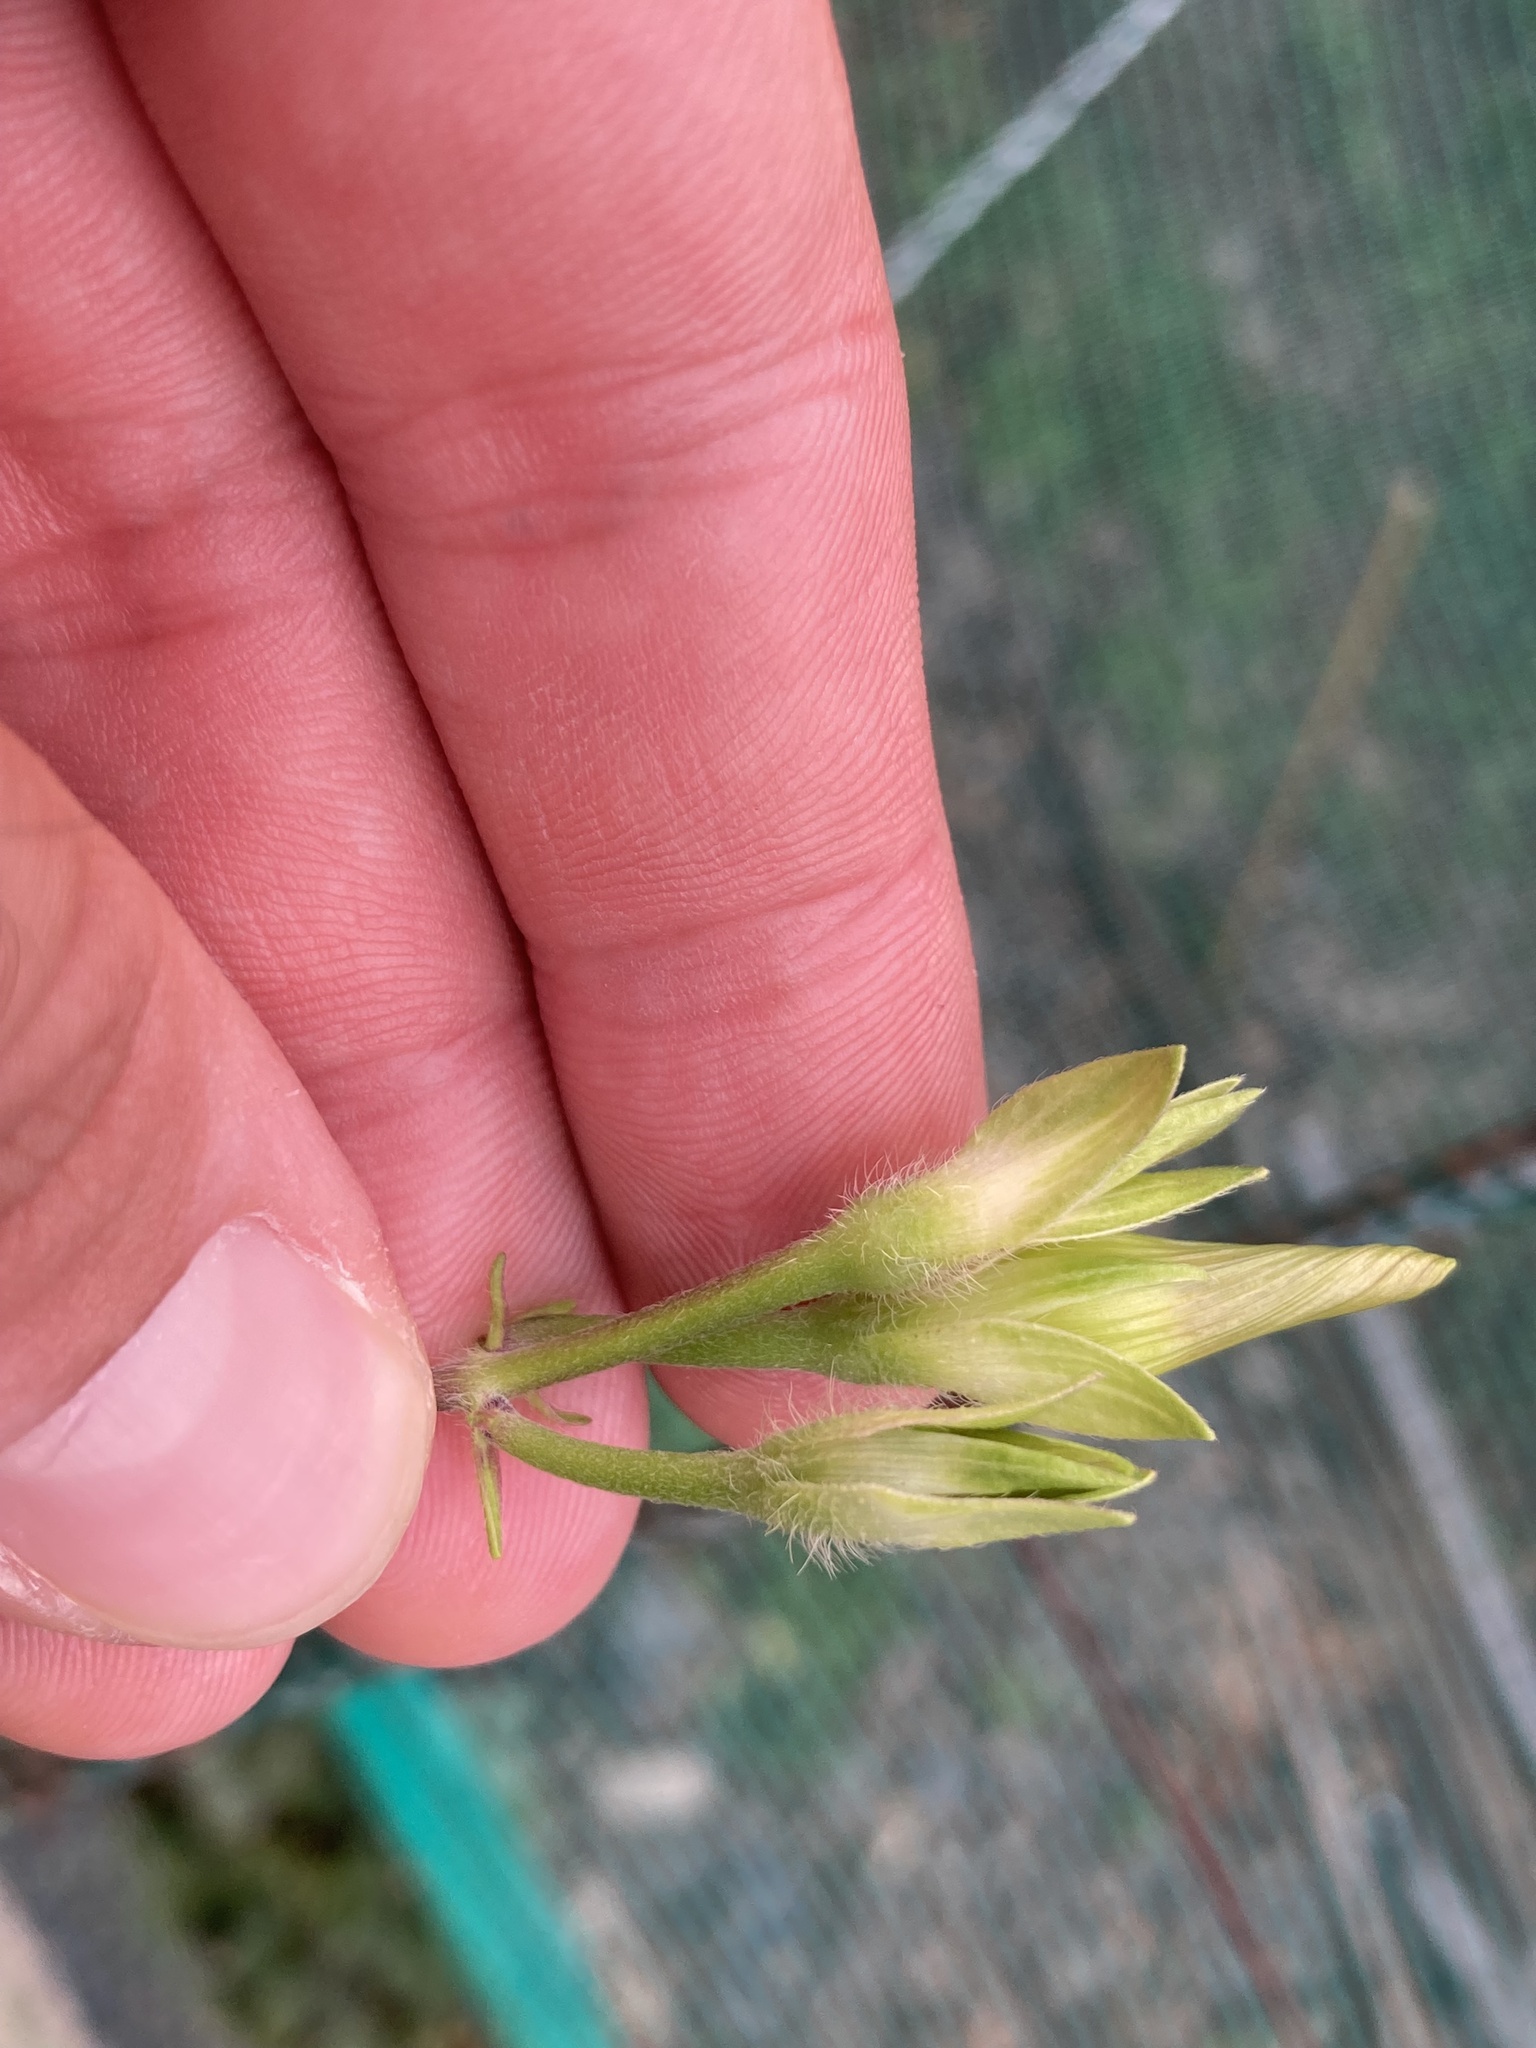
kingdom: Plantae
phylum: Tracheophyta
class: Magnoliopsida
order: Solanales
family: Convolvulaceae
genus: Ipomoea
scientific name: Ipomoea purpurea
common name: Common morning-glory
